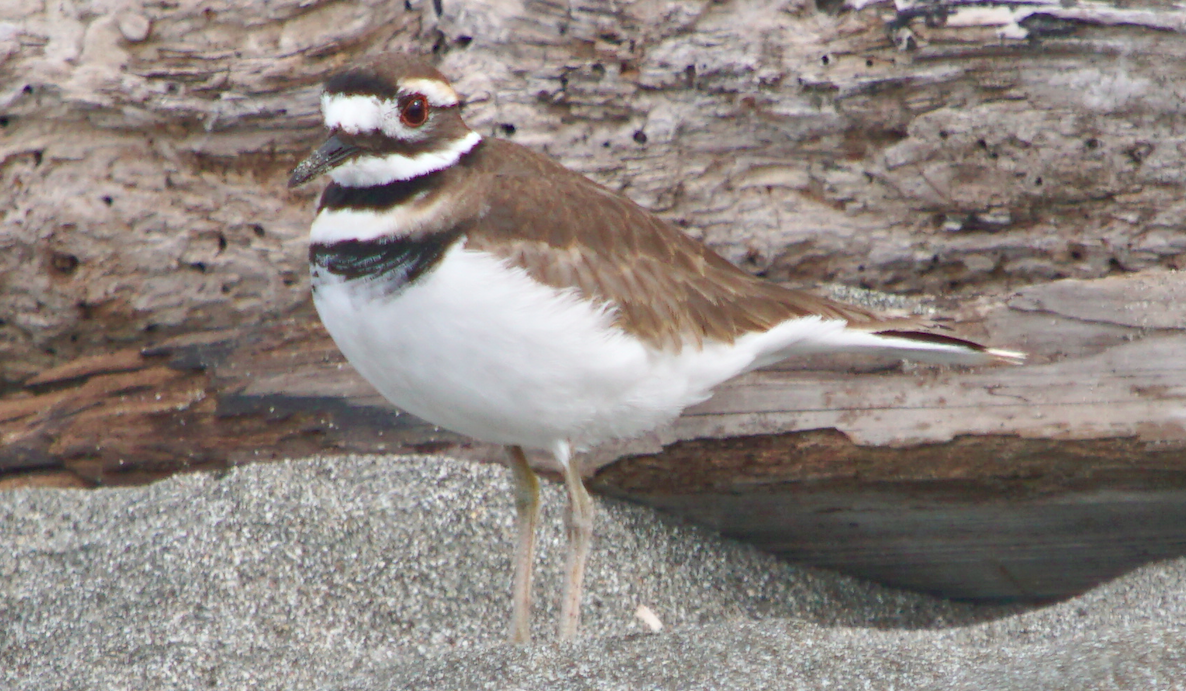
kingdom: Animalia
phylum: Chordata
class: Aves
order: Charadriiformes
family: Charadriidae
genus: Charadrius
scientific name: Charadrius vociferus
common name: Killdeer
